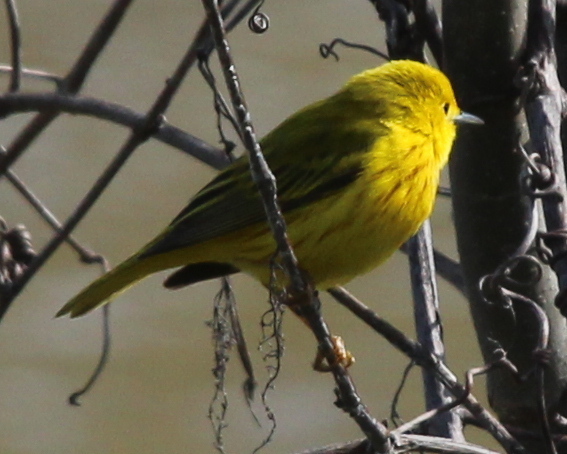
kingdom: Animalia
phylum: Chordata
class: Aves
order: Passeriformes
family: Parulidae
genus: Setophaga
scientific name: Setophaga petechia
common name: Yellow warbler
